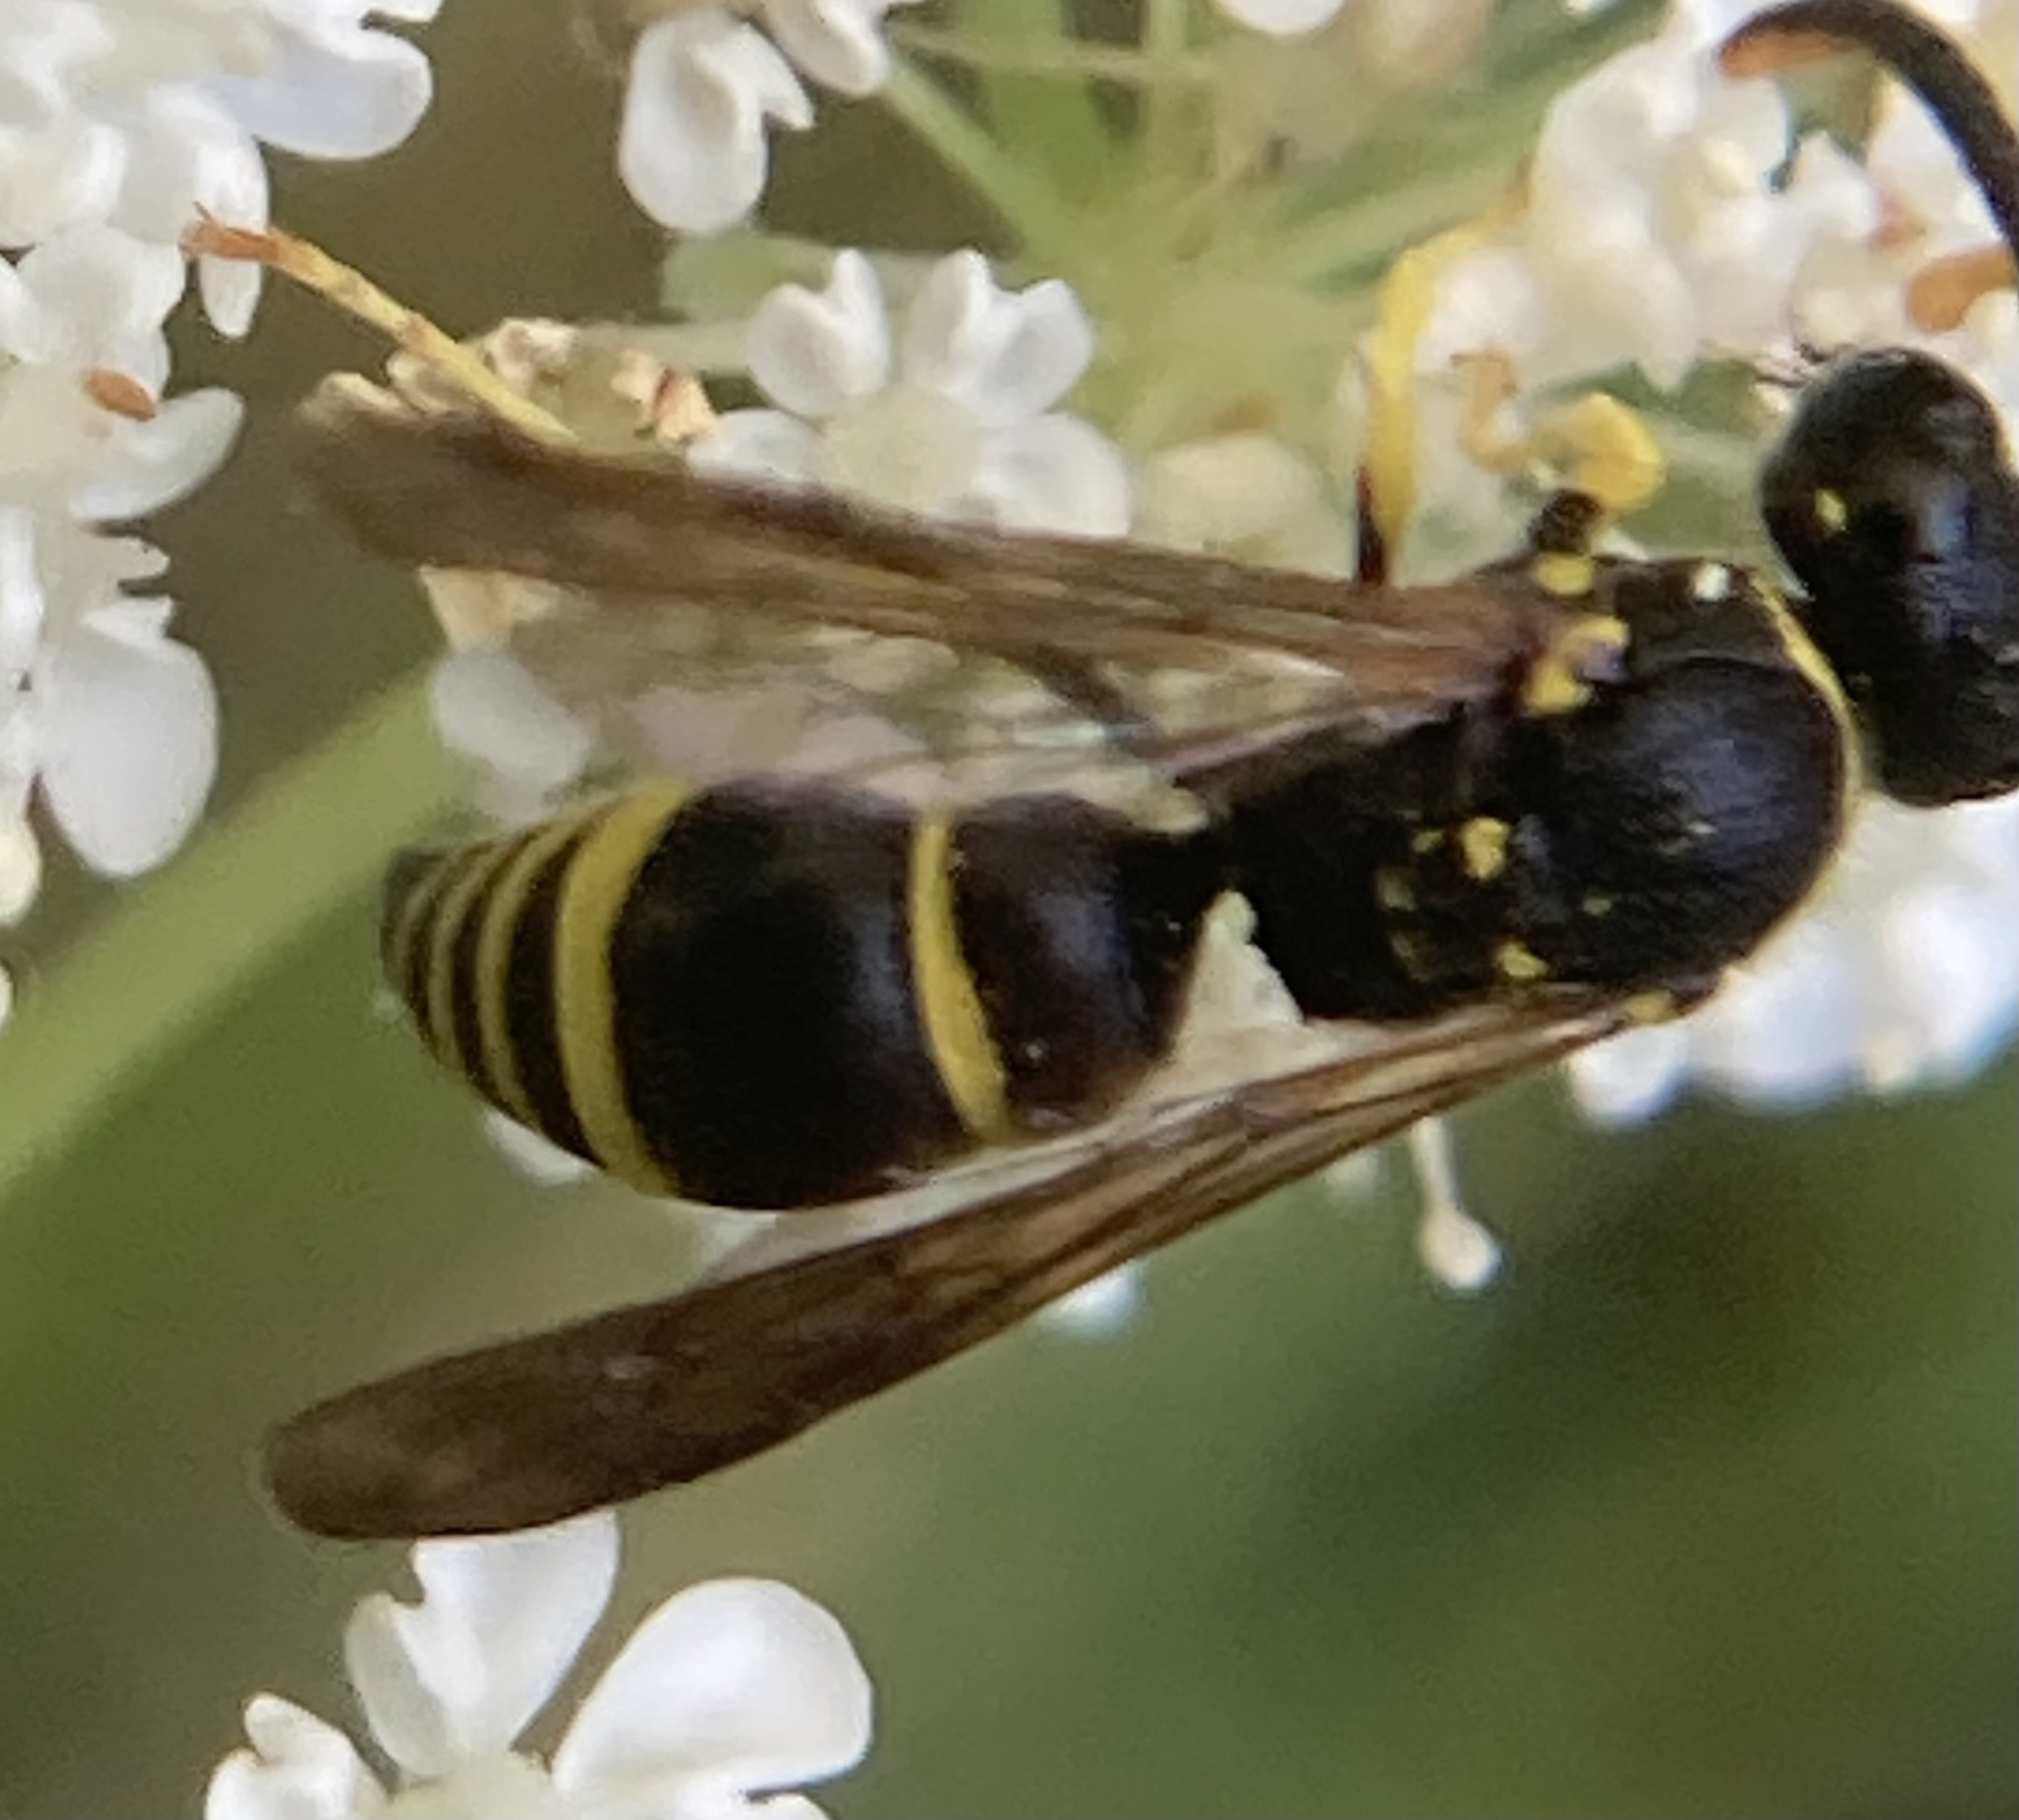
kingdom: Animalia
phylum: Arthropoda
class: Insecta
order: Hymenoptera
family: Vespidae
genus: Ancistrocerus
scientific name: Ancistrocerus adiabatus
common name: Bramble mason wasp
